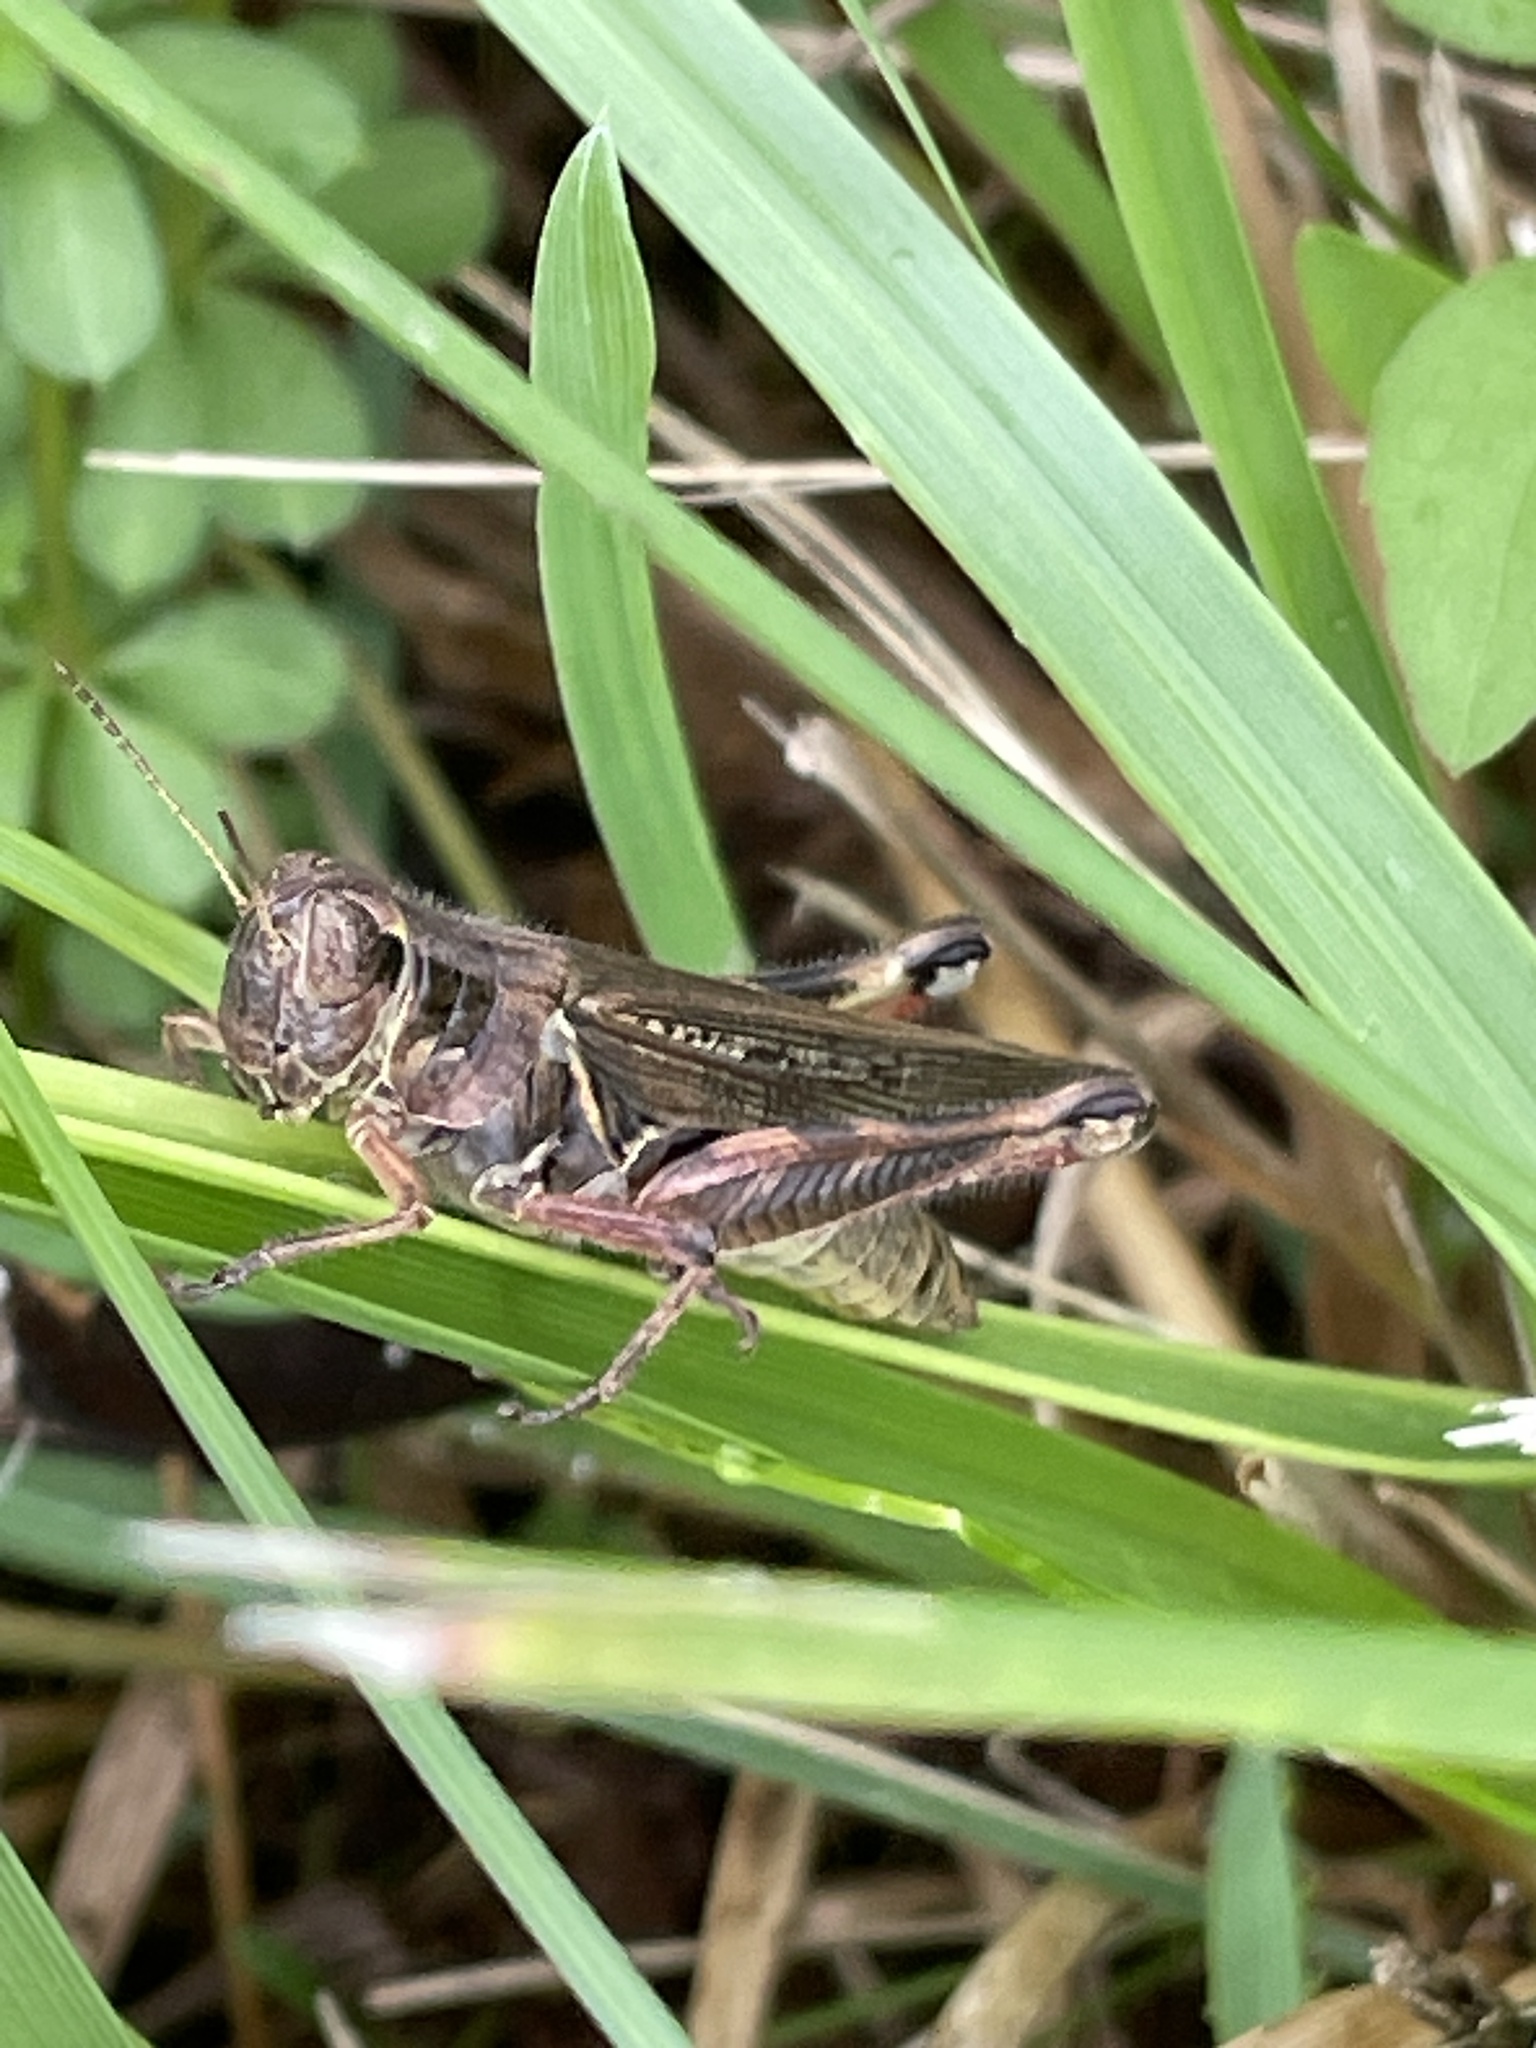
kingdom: Animalia
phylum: Arthropoda
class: Insecta
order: Orthoptera
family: Acrididae
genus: Melanoplus
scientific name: Melanoplus differentialis
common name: Differential grasshopper
